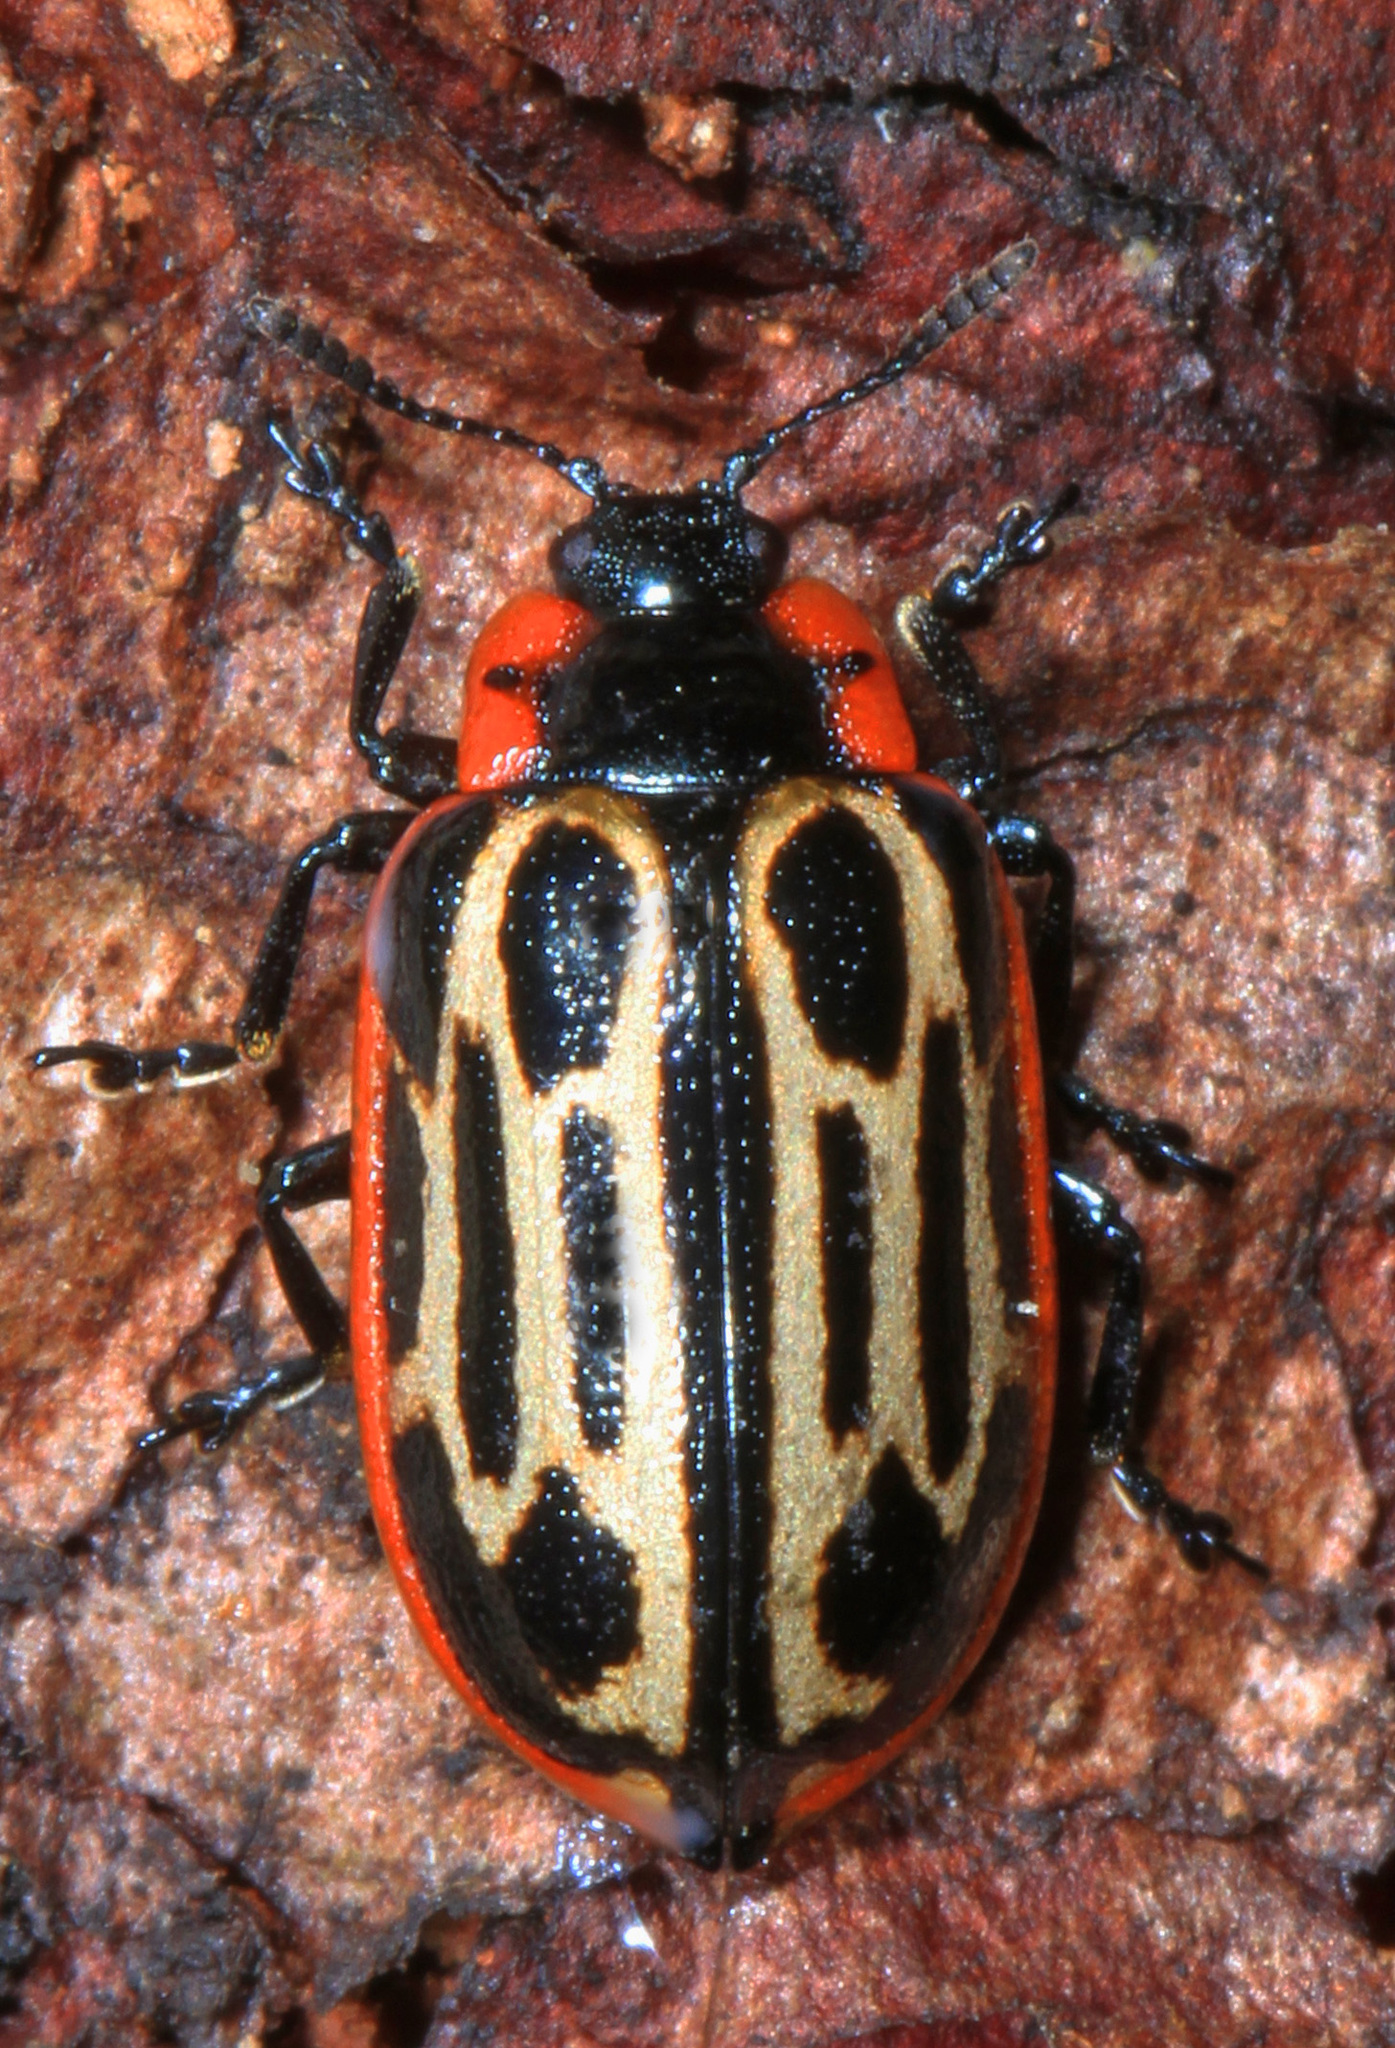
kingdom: Animalia
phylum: Arthropoda
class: Insecta
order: Coleoptera
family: Chrysomelidae
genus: Aethiopocassis
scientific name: Aethiopocassis scripta
